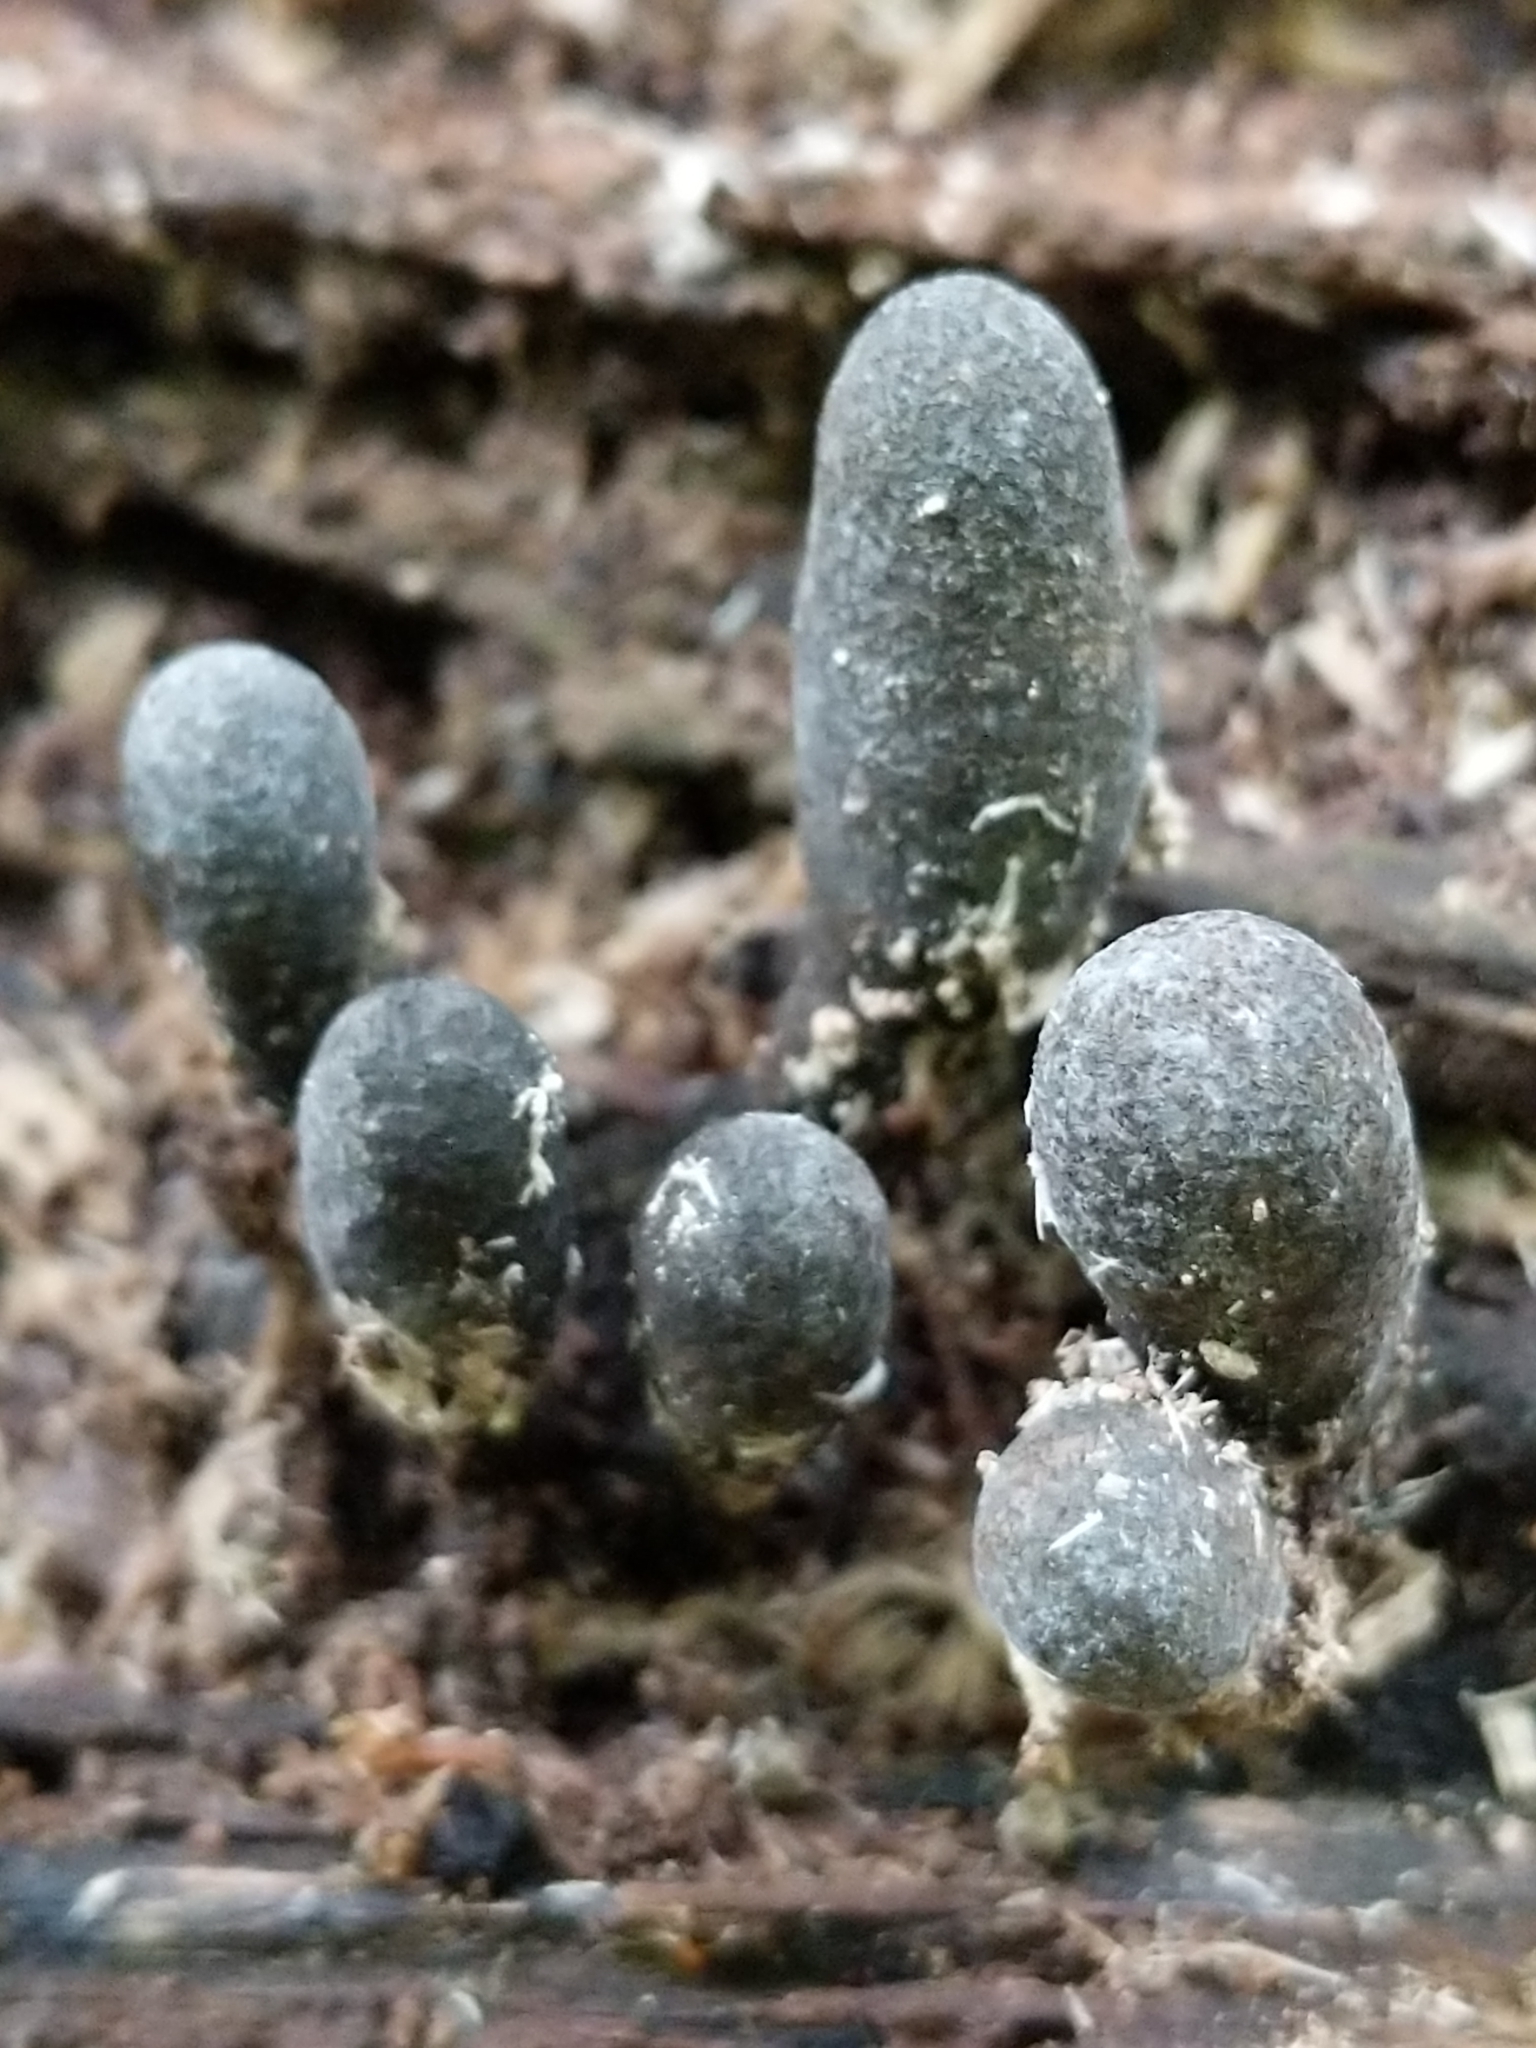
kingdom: Fungi
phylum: Ascomycota
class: Sordariomycetes
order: Xylariales
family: Xylariaceae
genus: Xylaria
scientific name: Xylaria polymorpha
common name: Dead man's fingers
